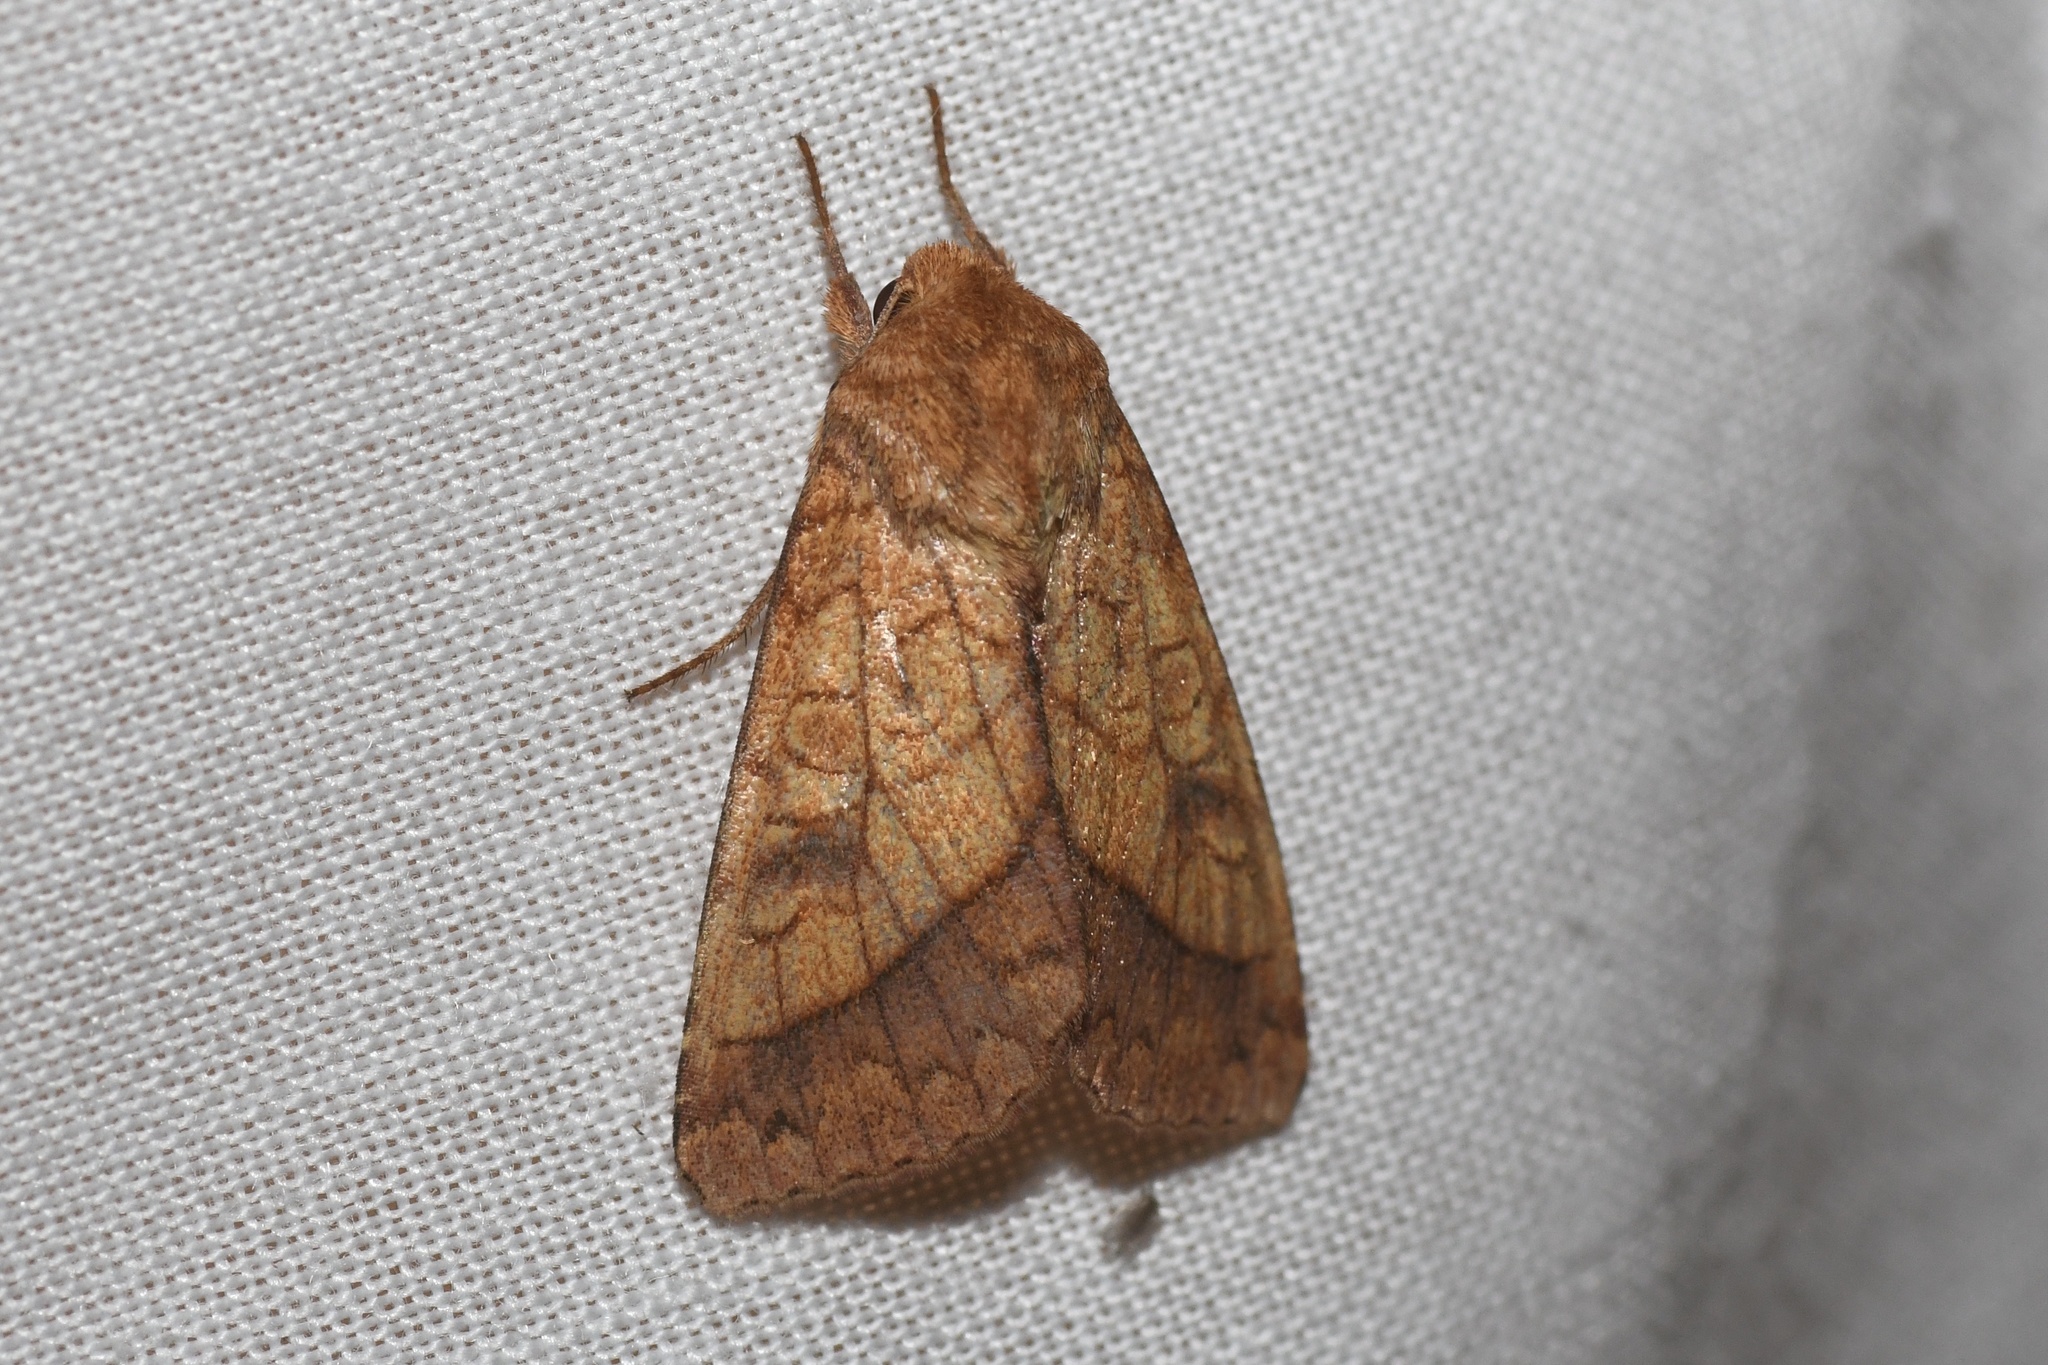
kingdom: Animalia
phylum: Arthropoda
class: Insecta
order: Lepidoptera
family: Noctuidae
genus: Pyrrhia
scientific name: Pyrrhia cilisca
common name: Bordered sallow moth
